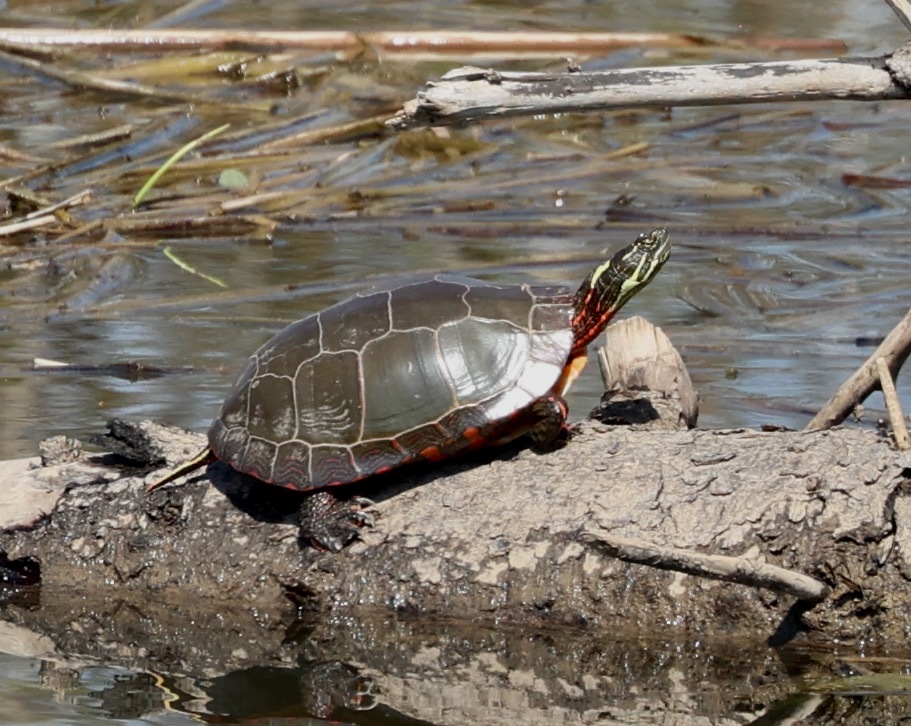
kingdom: Animalia
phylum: Chordata
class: Testudines
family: Emydidae
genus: Chrysemys
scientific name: Chrysemys picta
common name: Painted turtle
